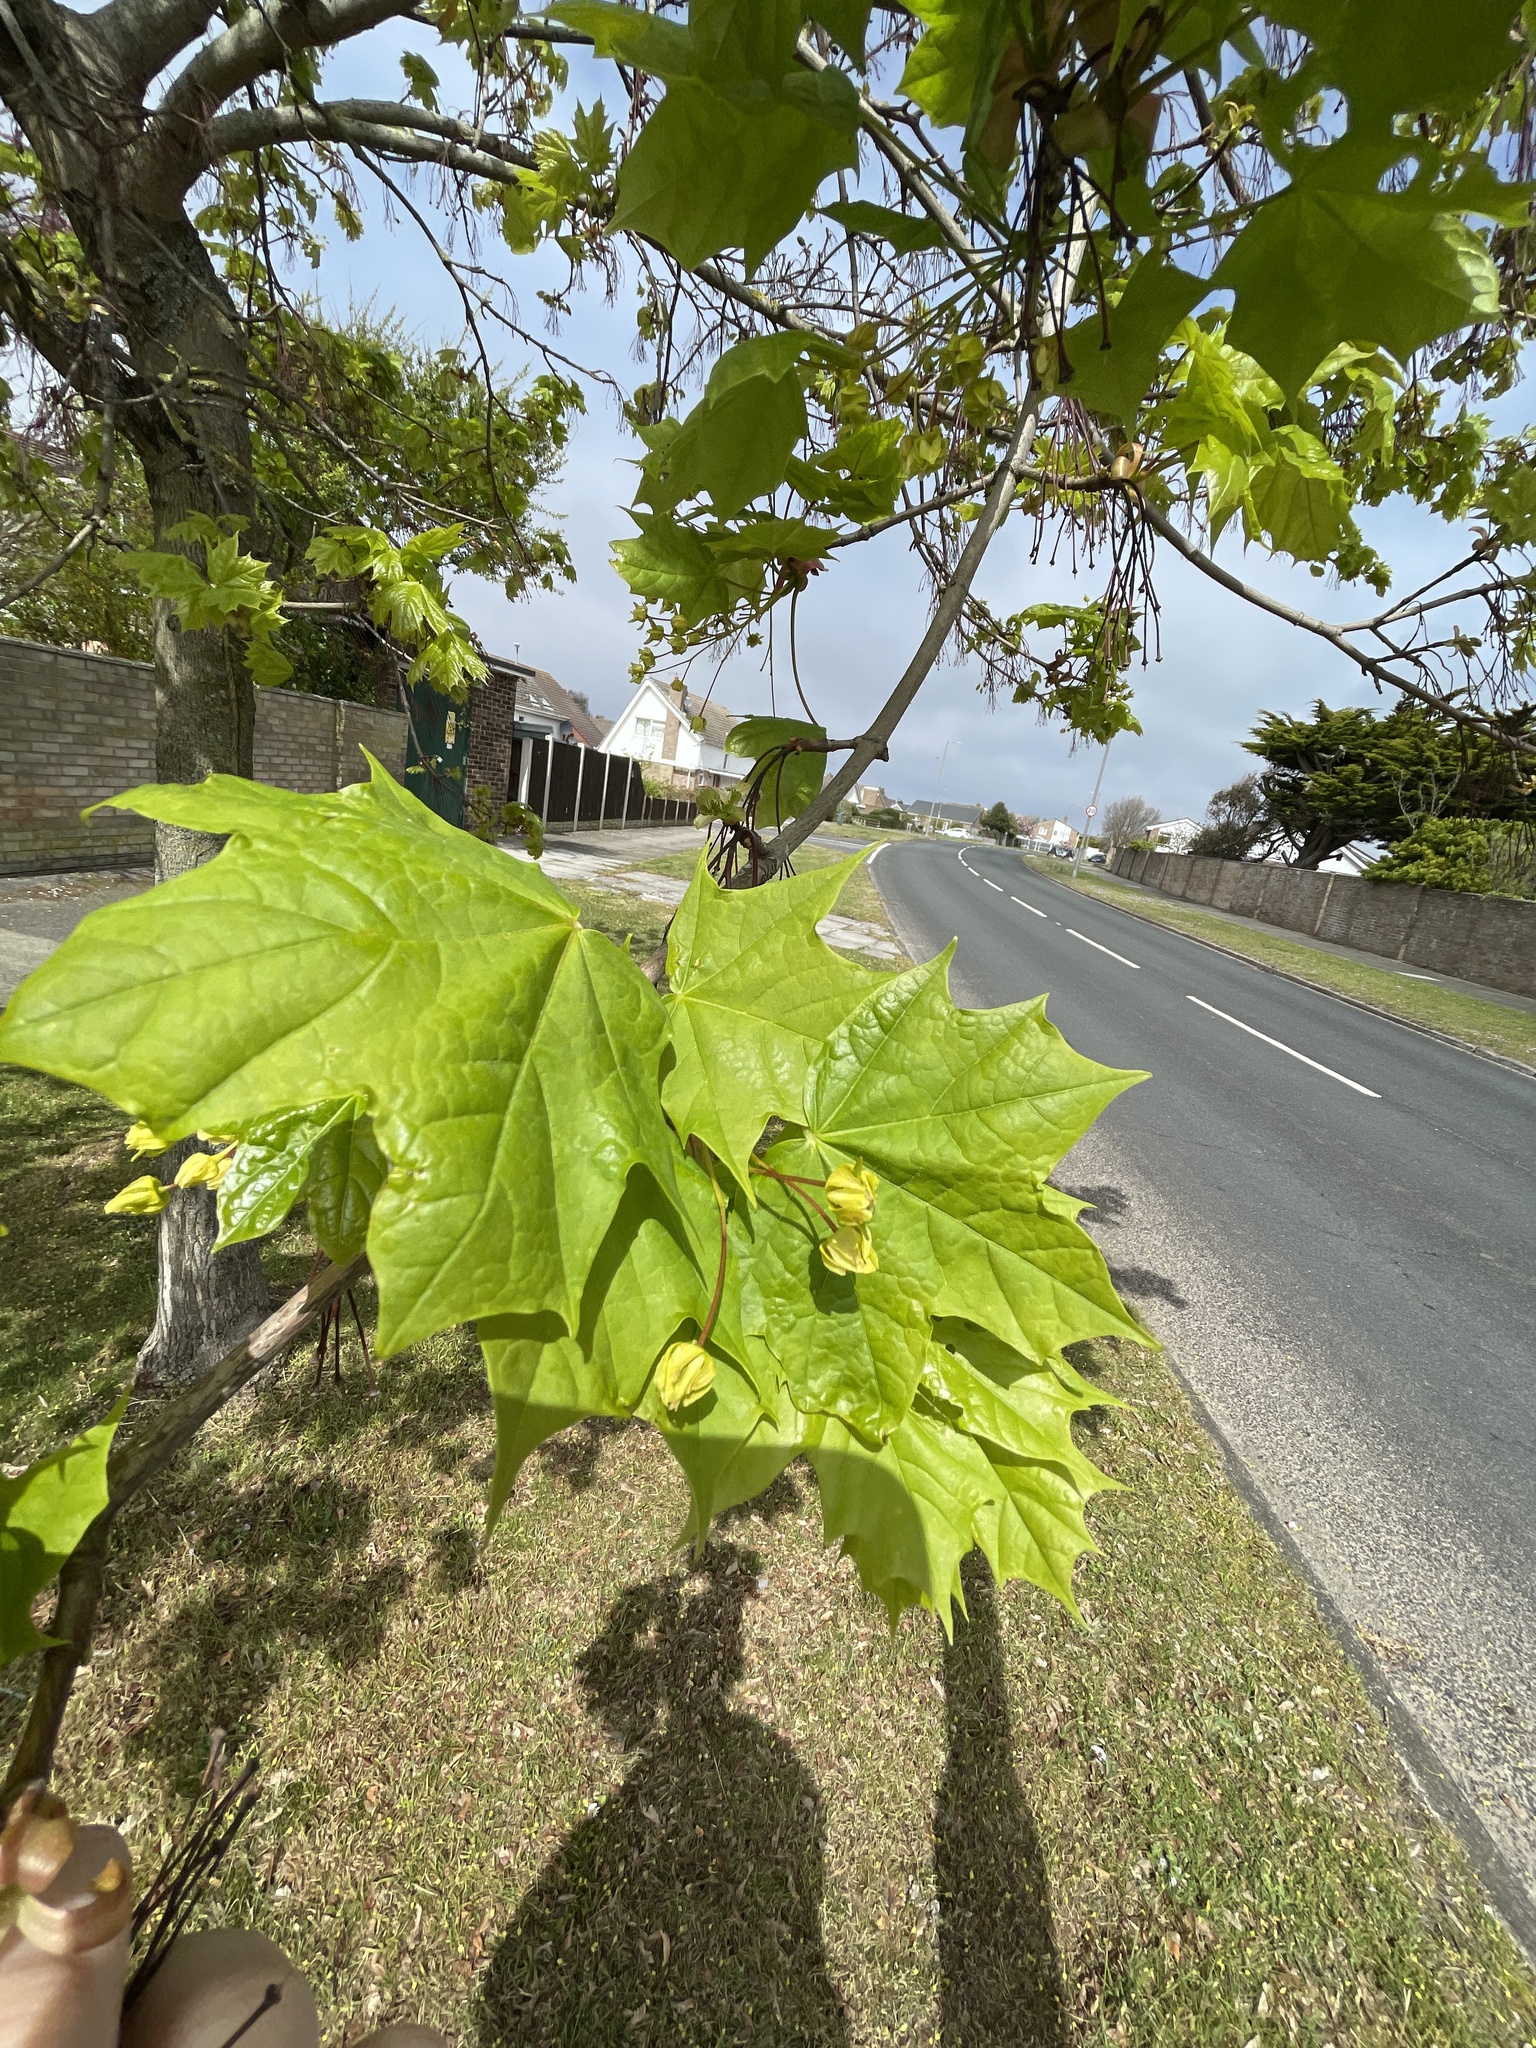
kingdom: Plantae
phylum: Tracheophyta
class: Magnoliopsida
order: Sapindales
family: Sapindaceae
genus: Acer
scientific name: Acer platanoides
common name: Norway maple
